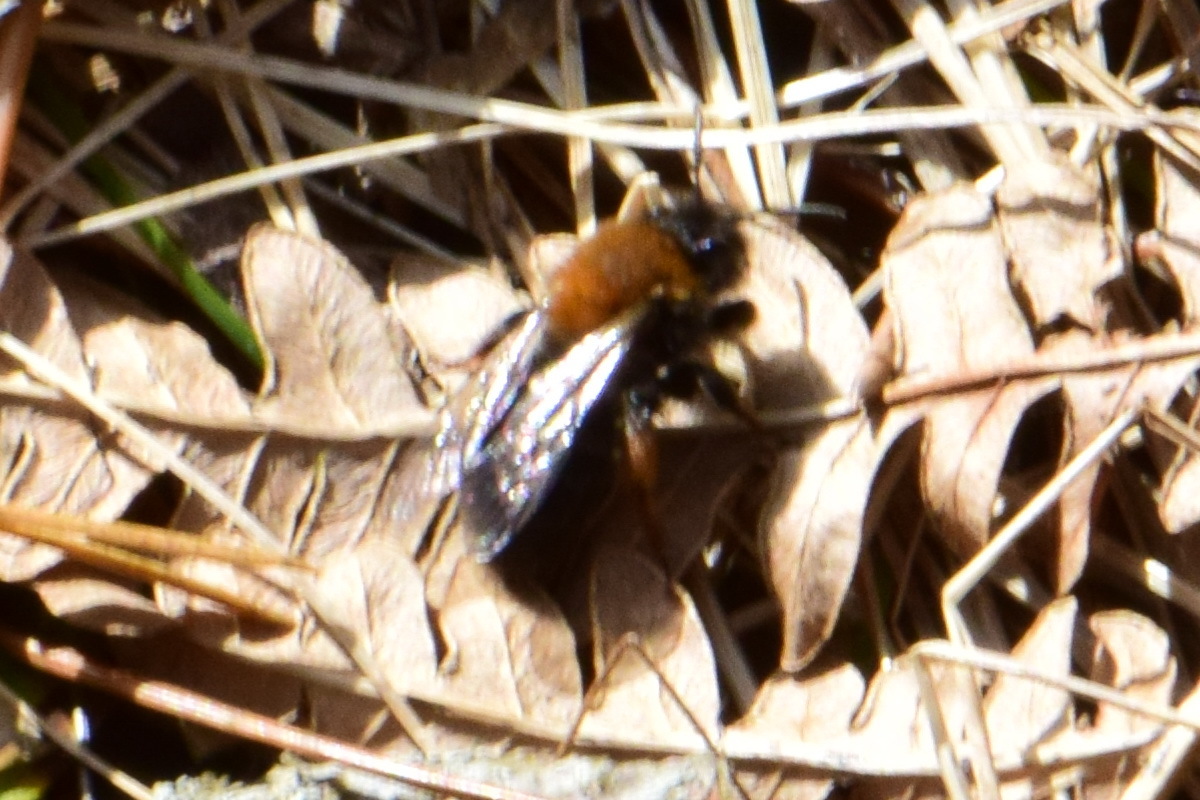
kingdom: Animalia
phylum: Arthropoda
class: Insecta
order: Hymenoptera
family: Andrenidae
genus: Andrena
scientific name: Andrena clarkella
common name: Clarke's mining bee
